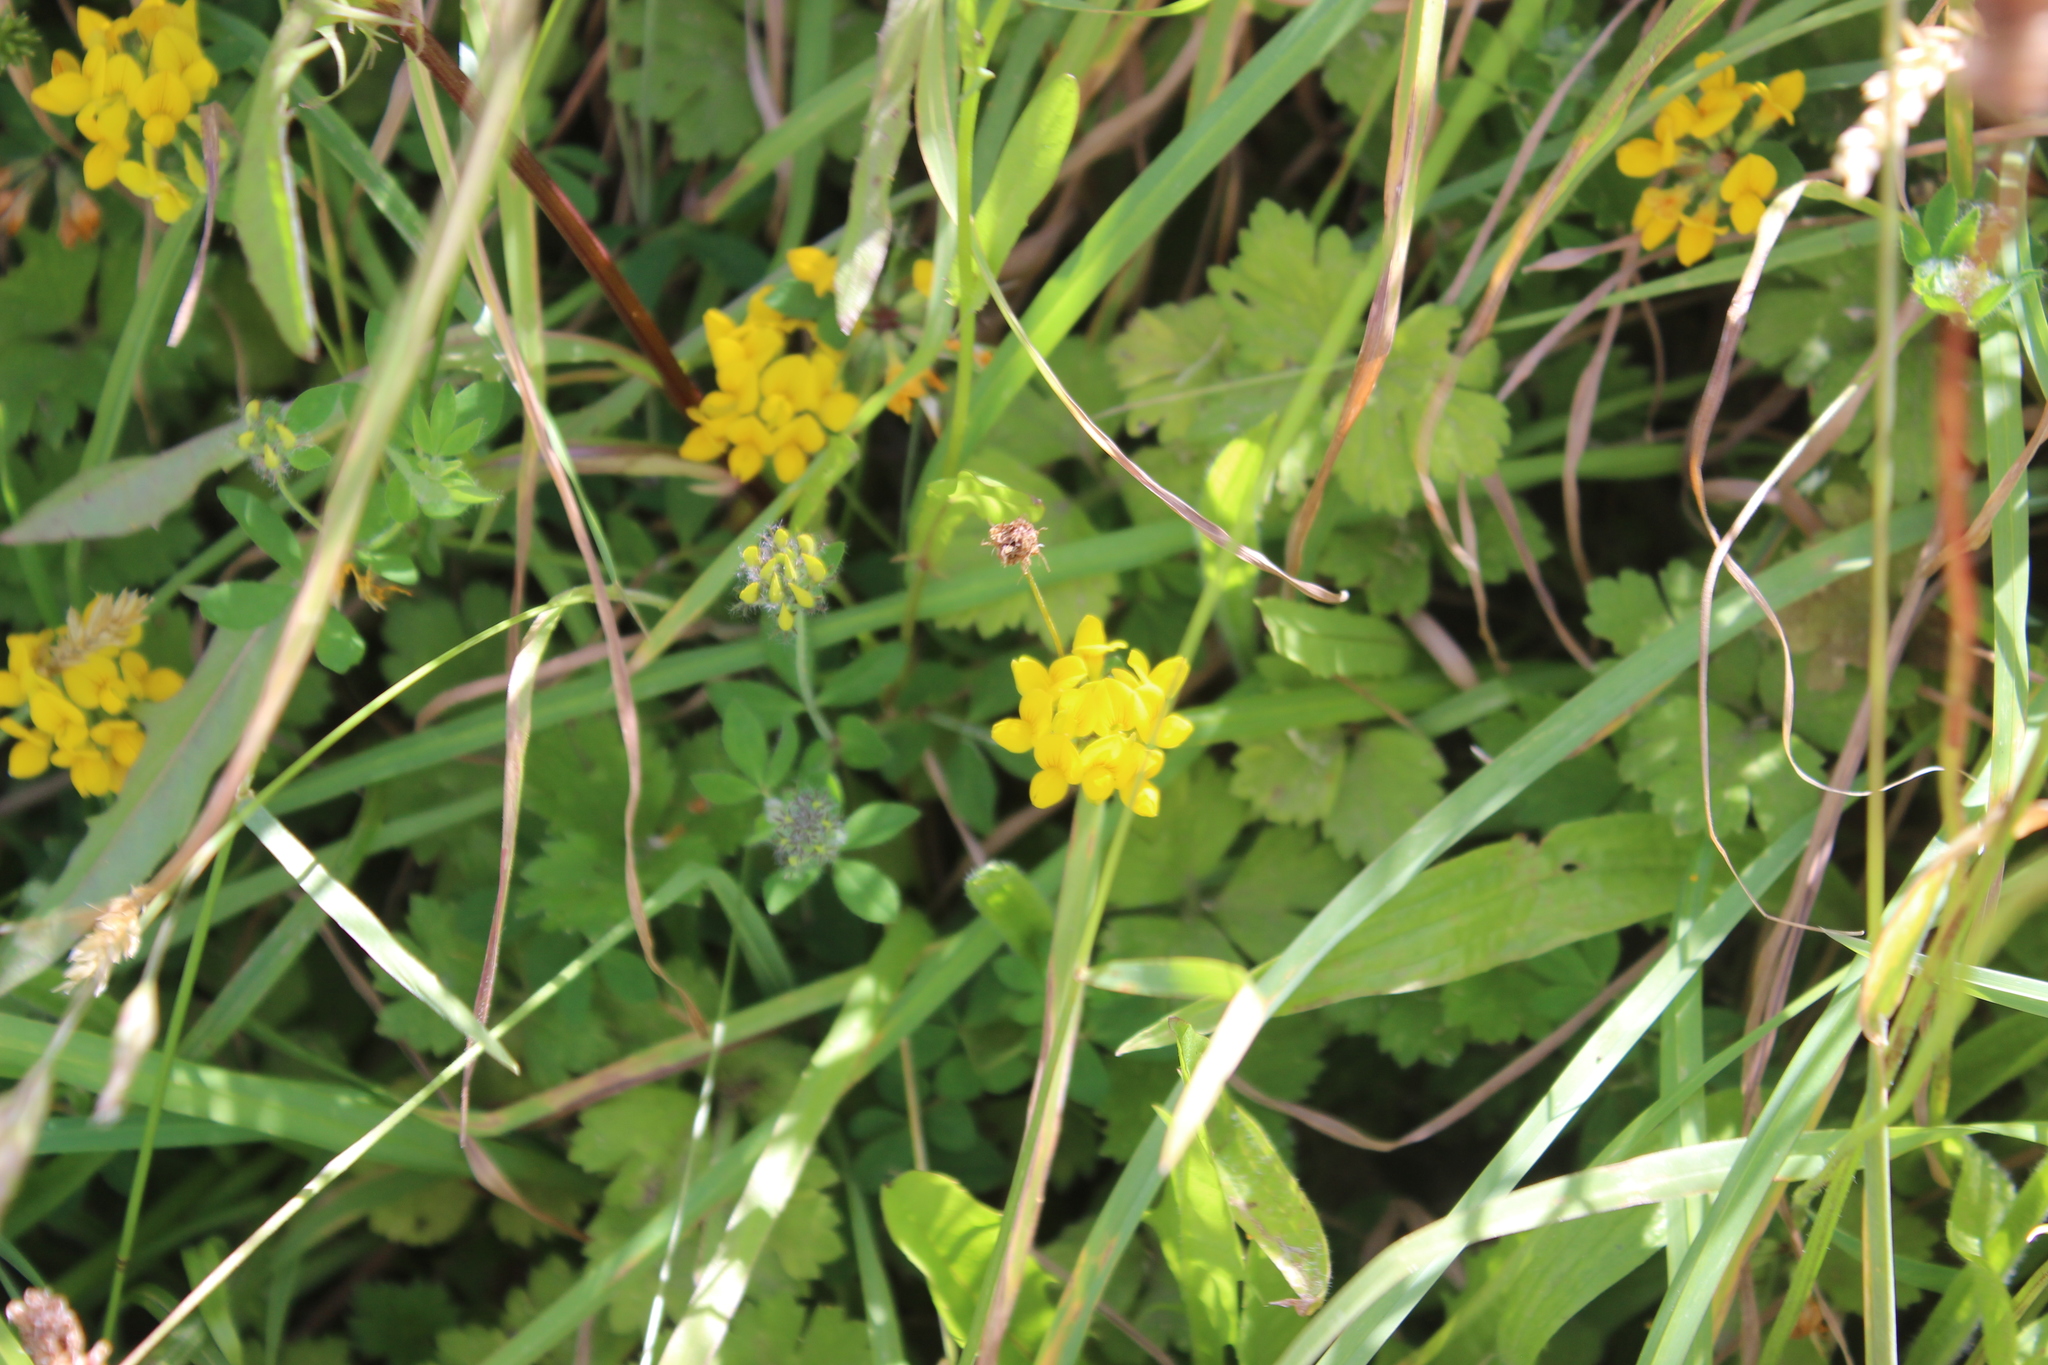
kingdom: Plantae
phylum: Tracheophyta
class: Magnoliopsida
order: Fabales
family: Fabaceae
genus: Lotus
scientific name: Lotus pedunculatus
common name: Greater birdsfoot-trefoil
